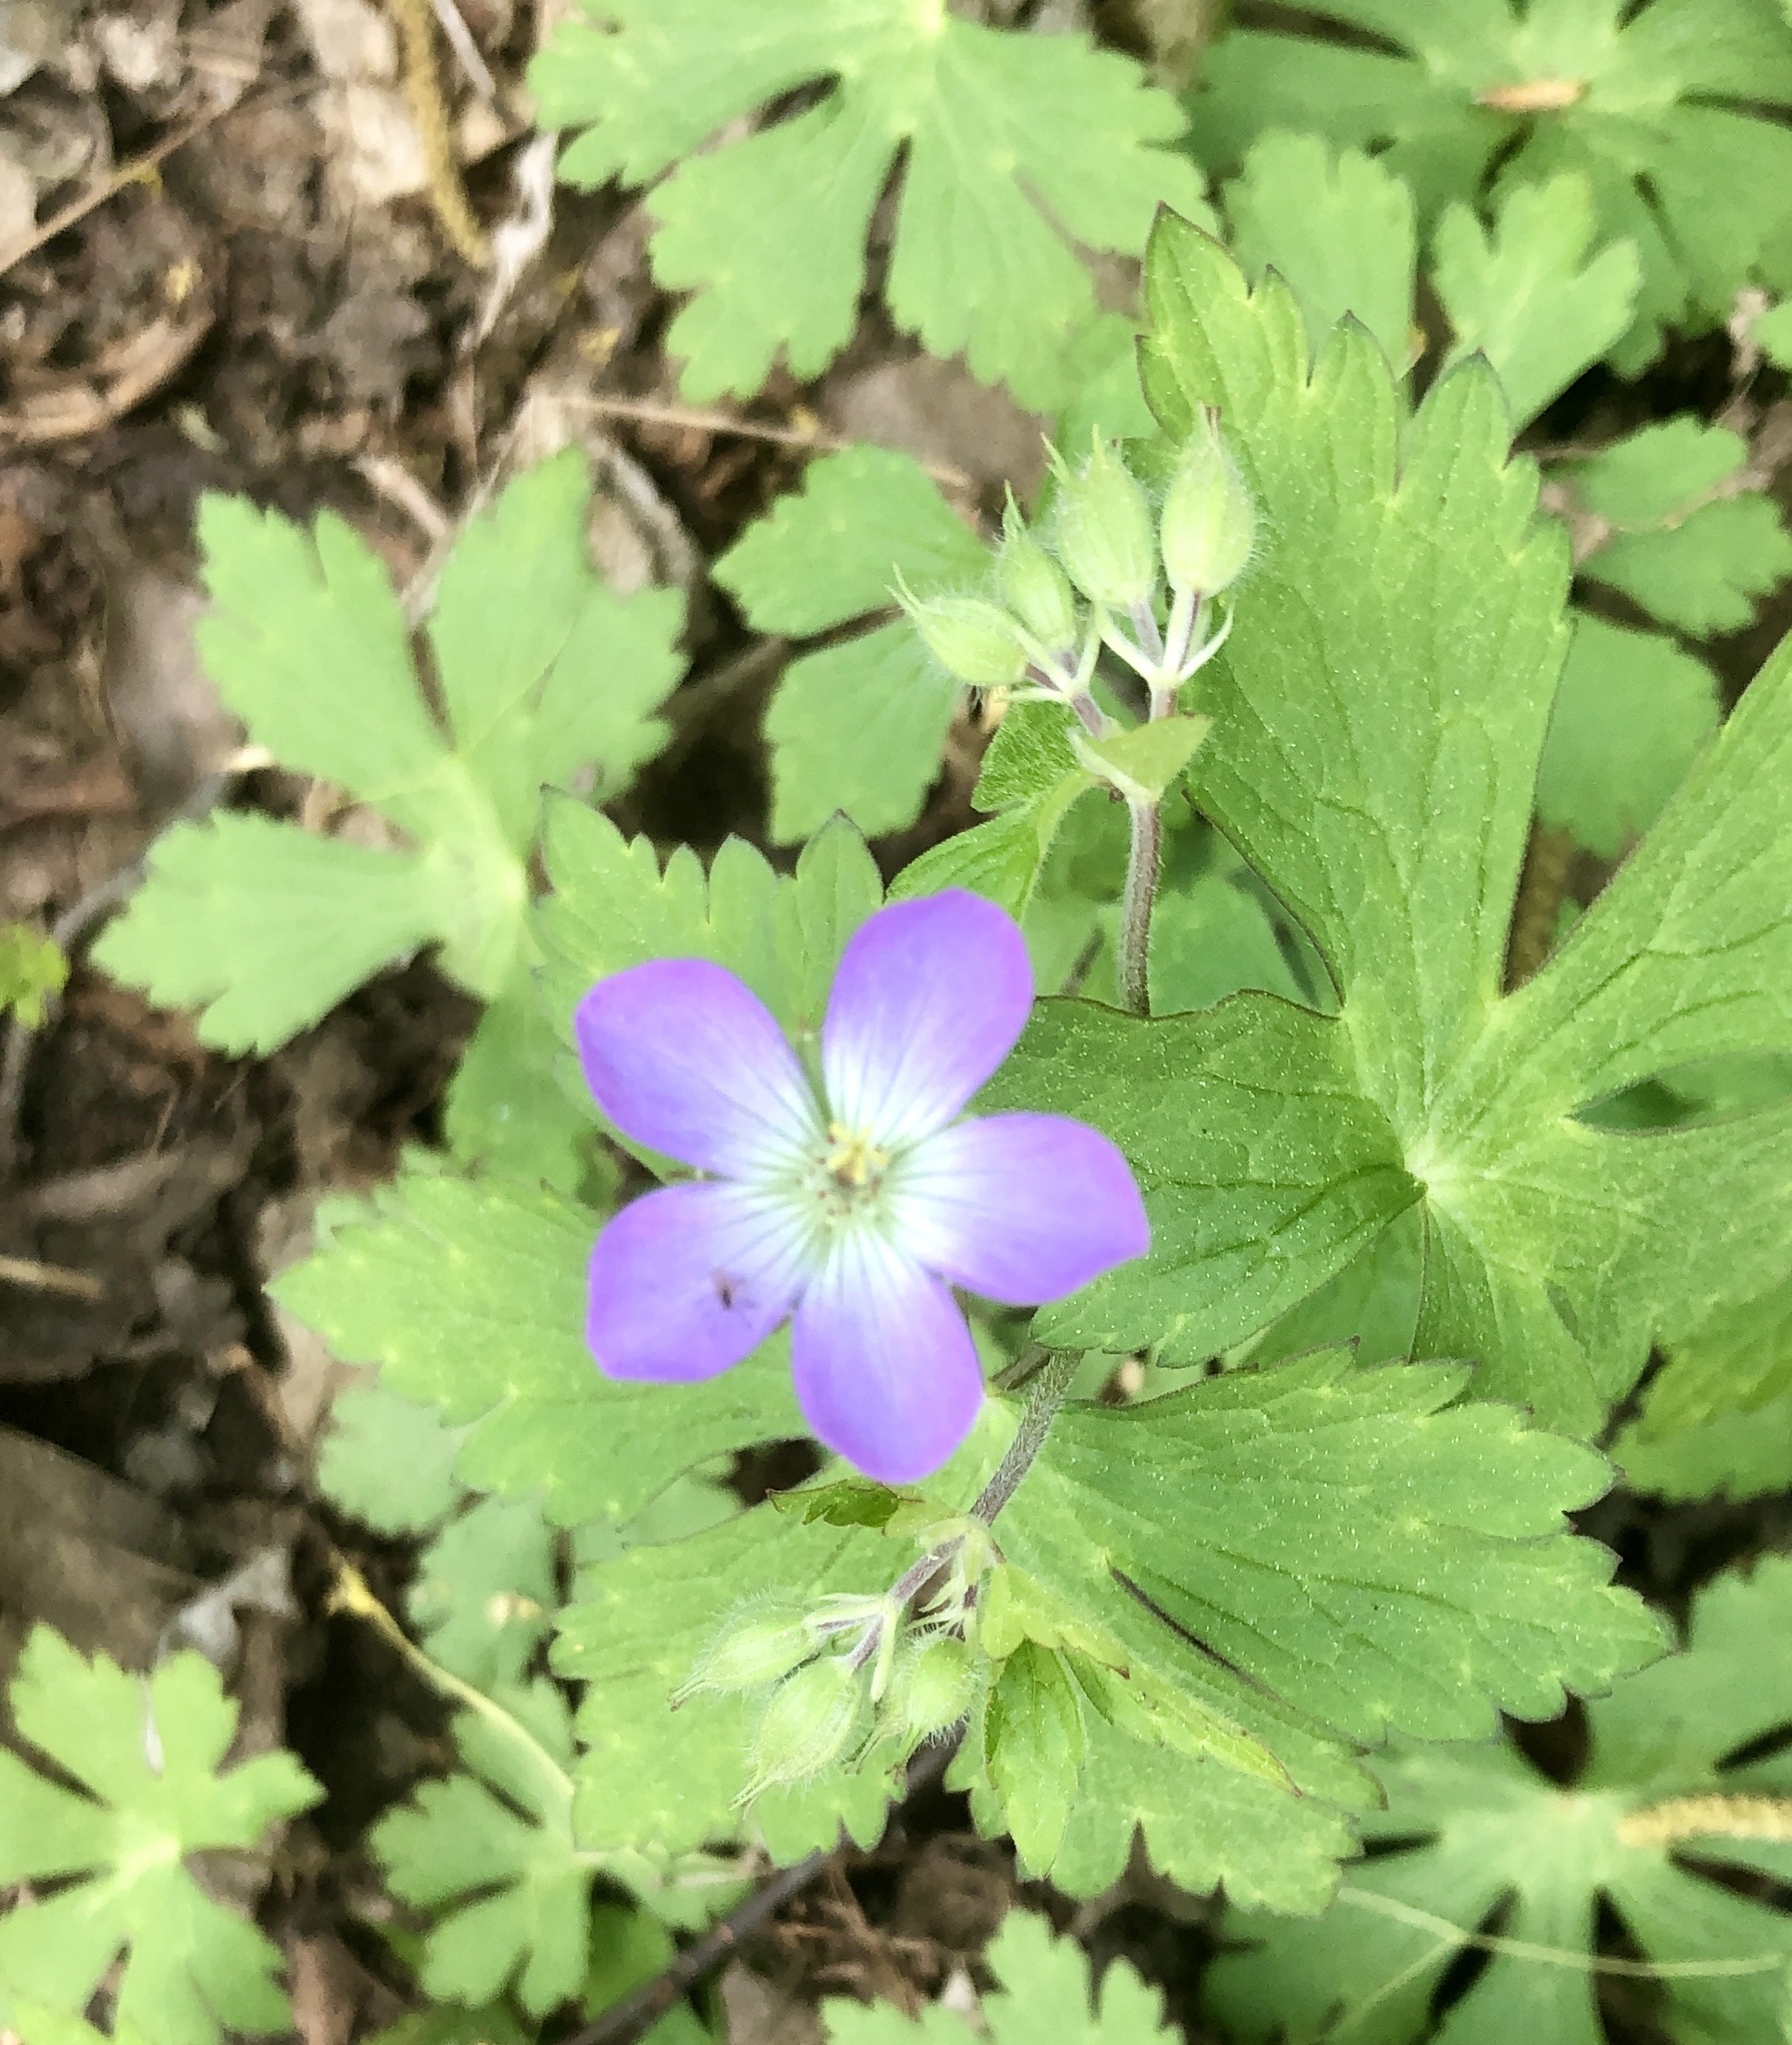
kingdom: Plantae
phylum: Tracheophyta
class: Magnoliopsida
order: Geraniales
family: Geraniaceae
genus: Geranium
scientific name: Geranium maculatum
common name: Spotted geranium
